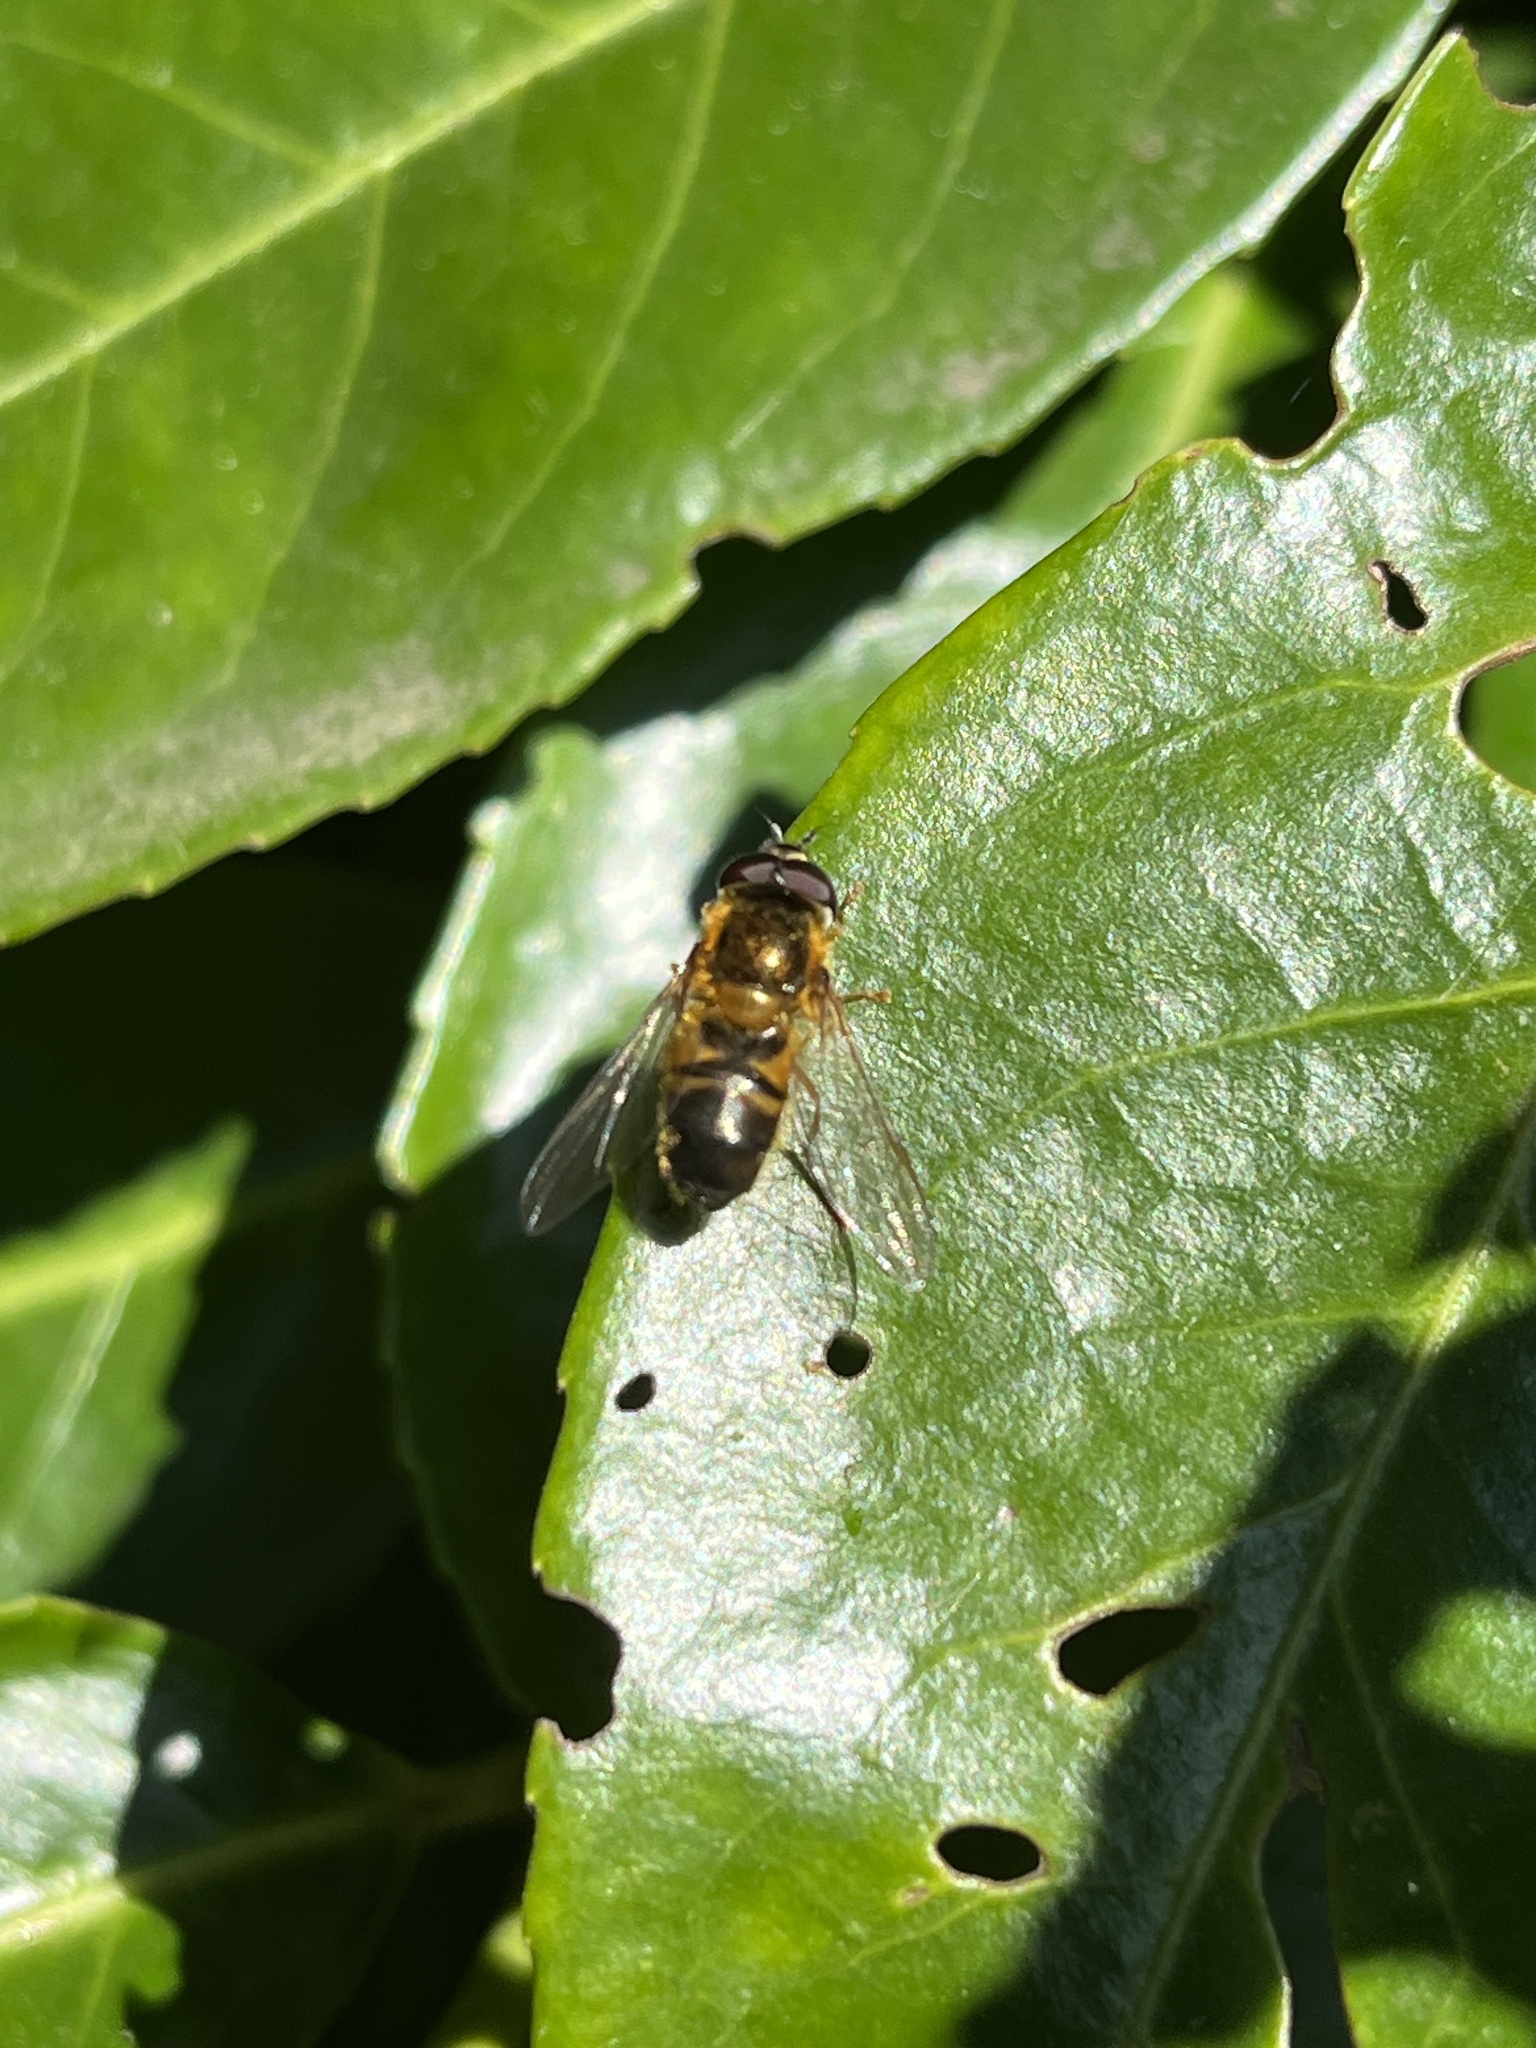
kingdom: Animalia
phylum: Arthropoda
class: Insecta
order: Diptera
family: Syrphidae
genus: Epistrophe
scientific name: Epistrophe eligans
